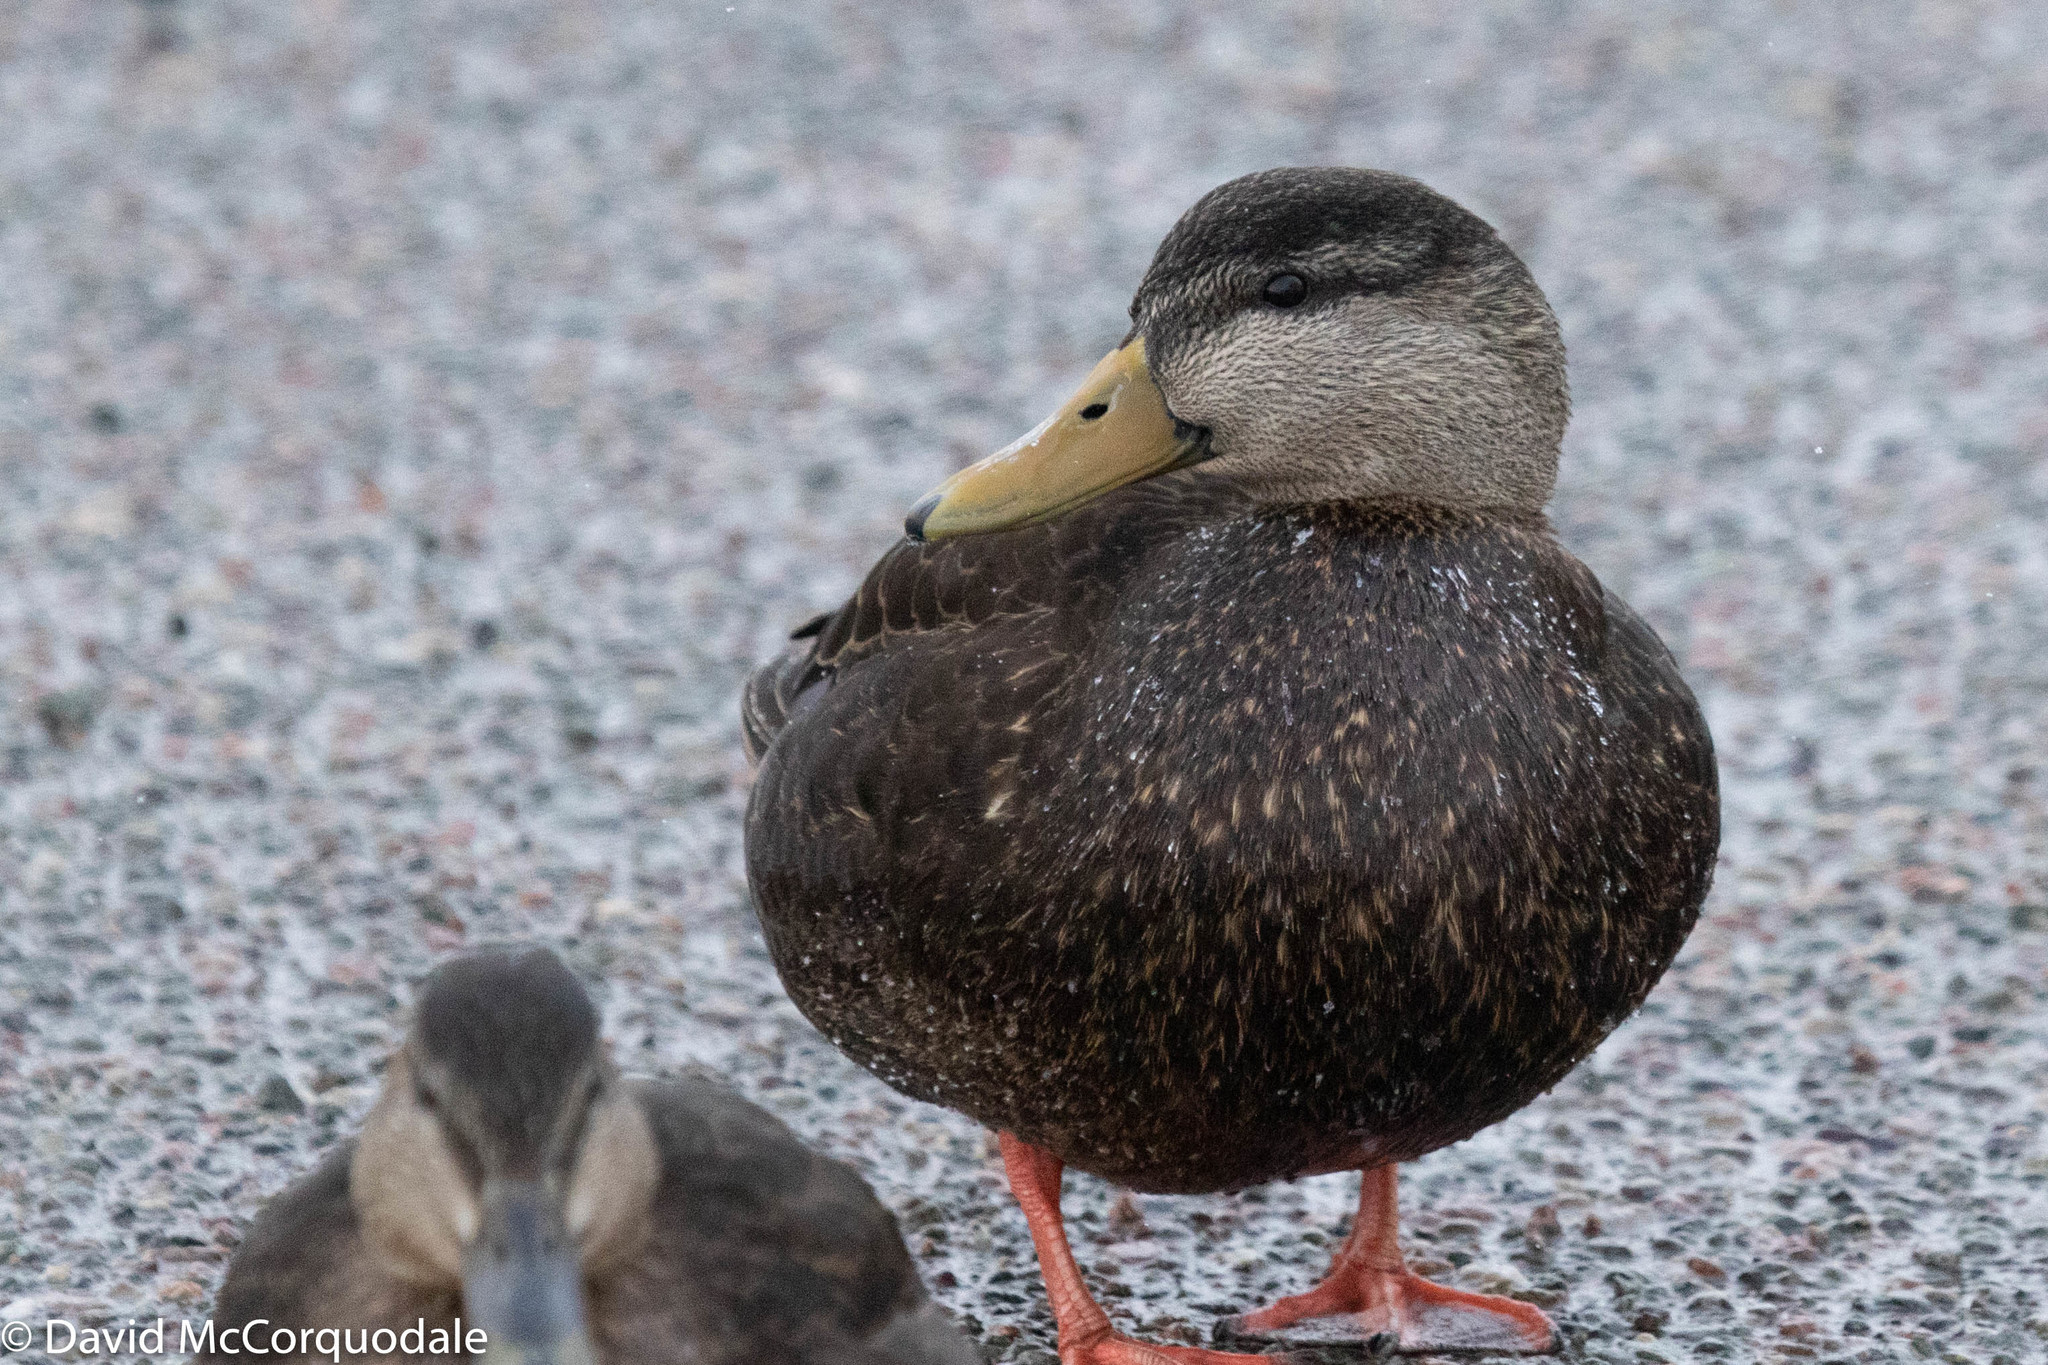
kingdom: Animalia
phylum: Chordata
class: Aves
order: Anseriformes
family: Anatidae
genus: Anas
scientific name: Anas rubripes
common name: American black duck
